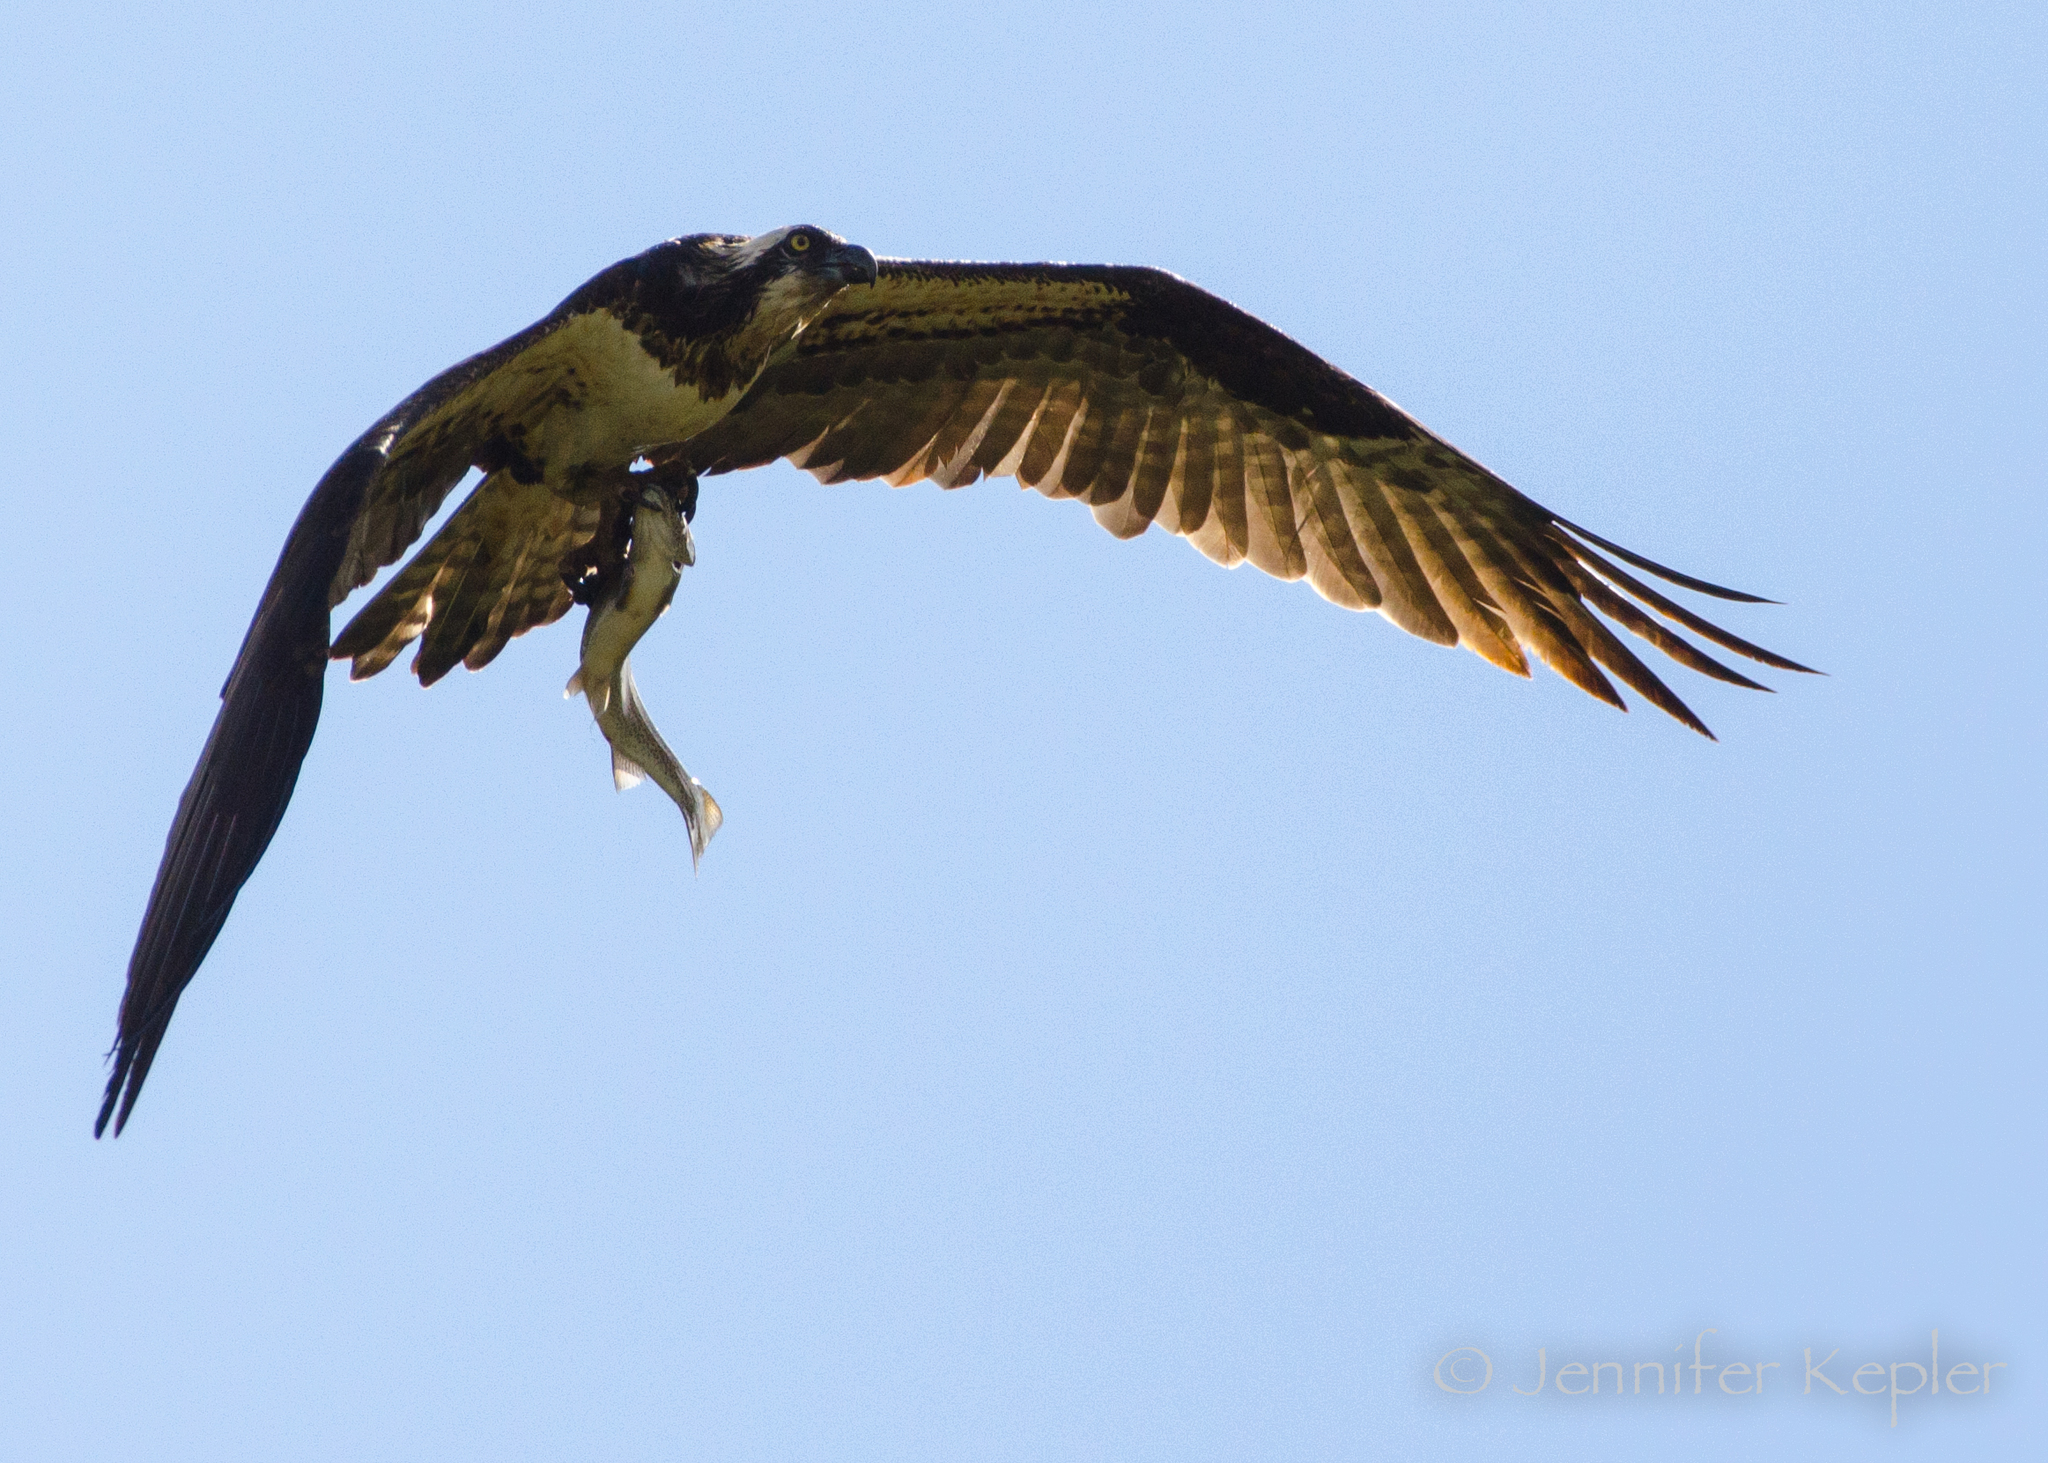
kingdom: Animalia
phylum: Chordata
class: Aves
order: Accipitriformes
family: Pandionidae
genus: Pandion
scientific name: Pandion haliaetus
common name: Osprey
